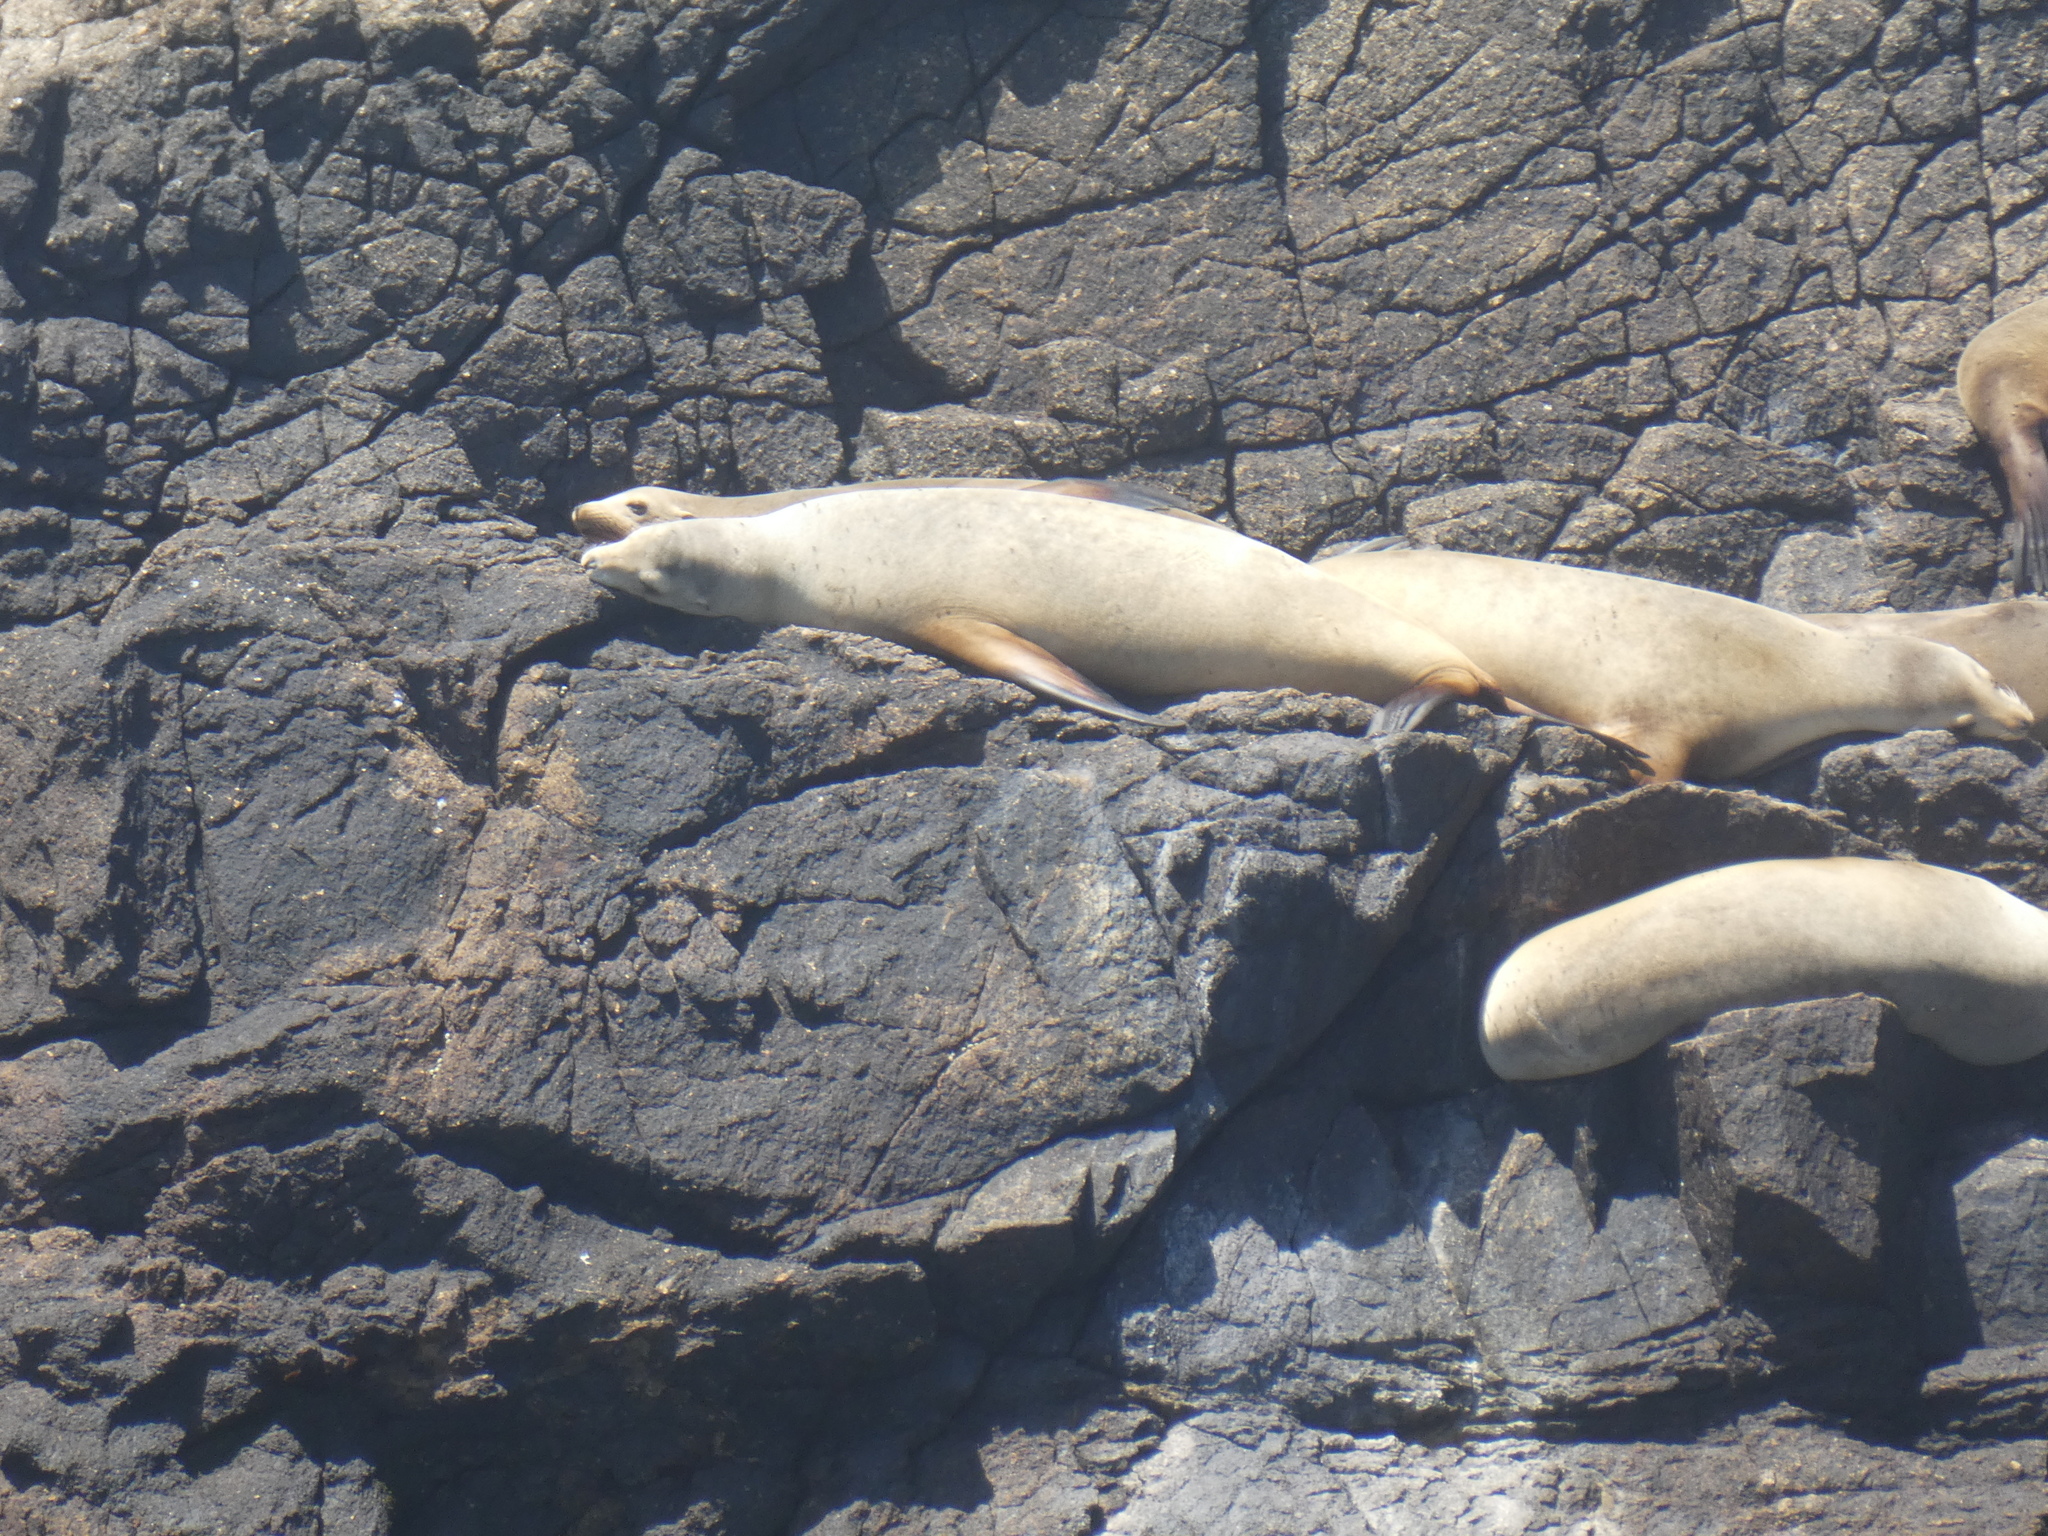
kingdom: Animalia
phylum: Chordata
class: Mammalia
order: Carnivora
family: Otariidae
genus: Zalophus
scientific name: Zalophus californianus
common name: California sea lion
